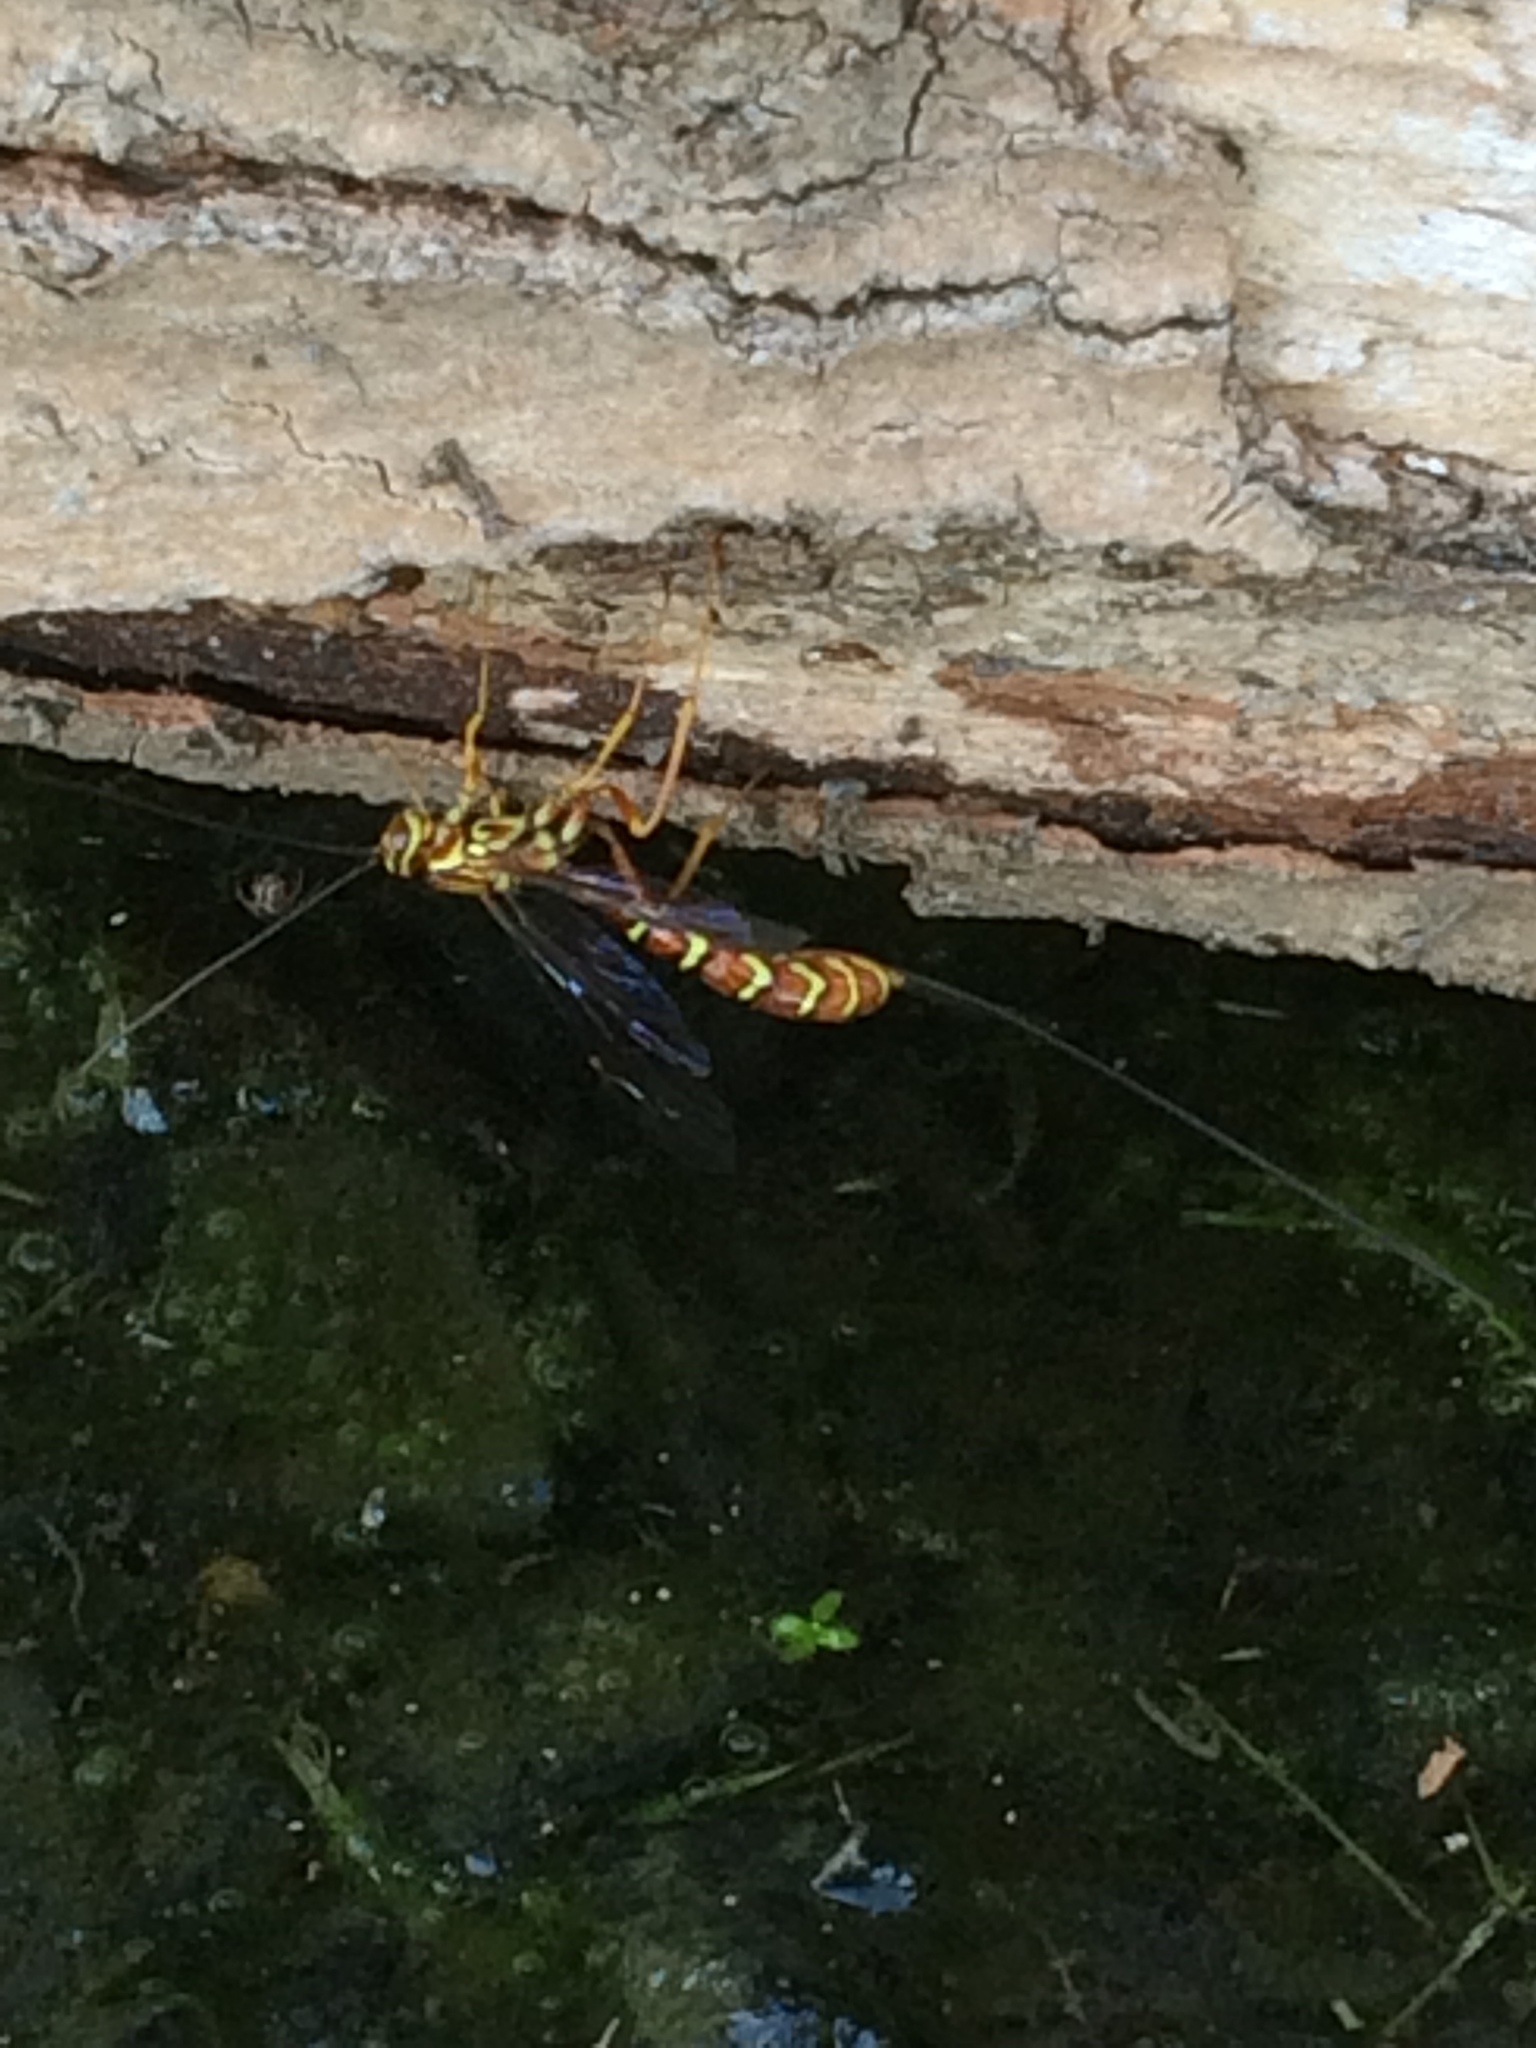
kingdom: Animalia
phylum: Arthropoda
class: Insecta
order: Hymenoptera
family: Ichneumonidae
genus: Megarhyssa
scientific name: Megarhyssa macrura
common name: Long-tailed giant ichneumonid wasp
